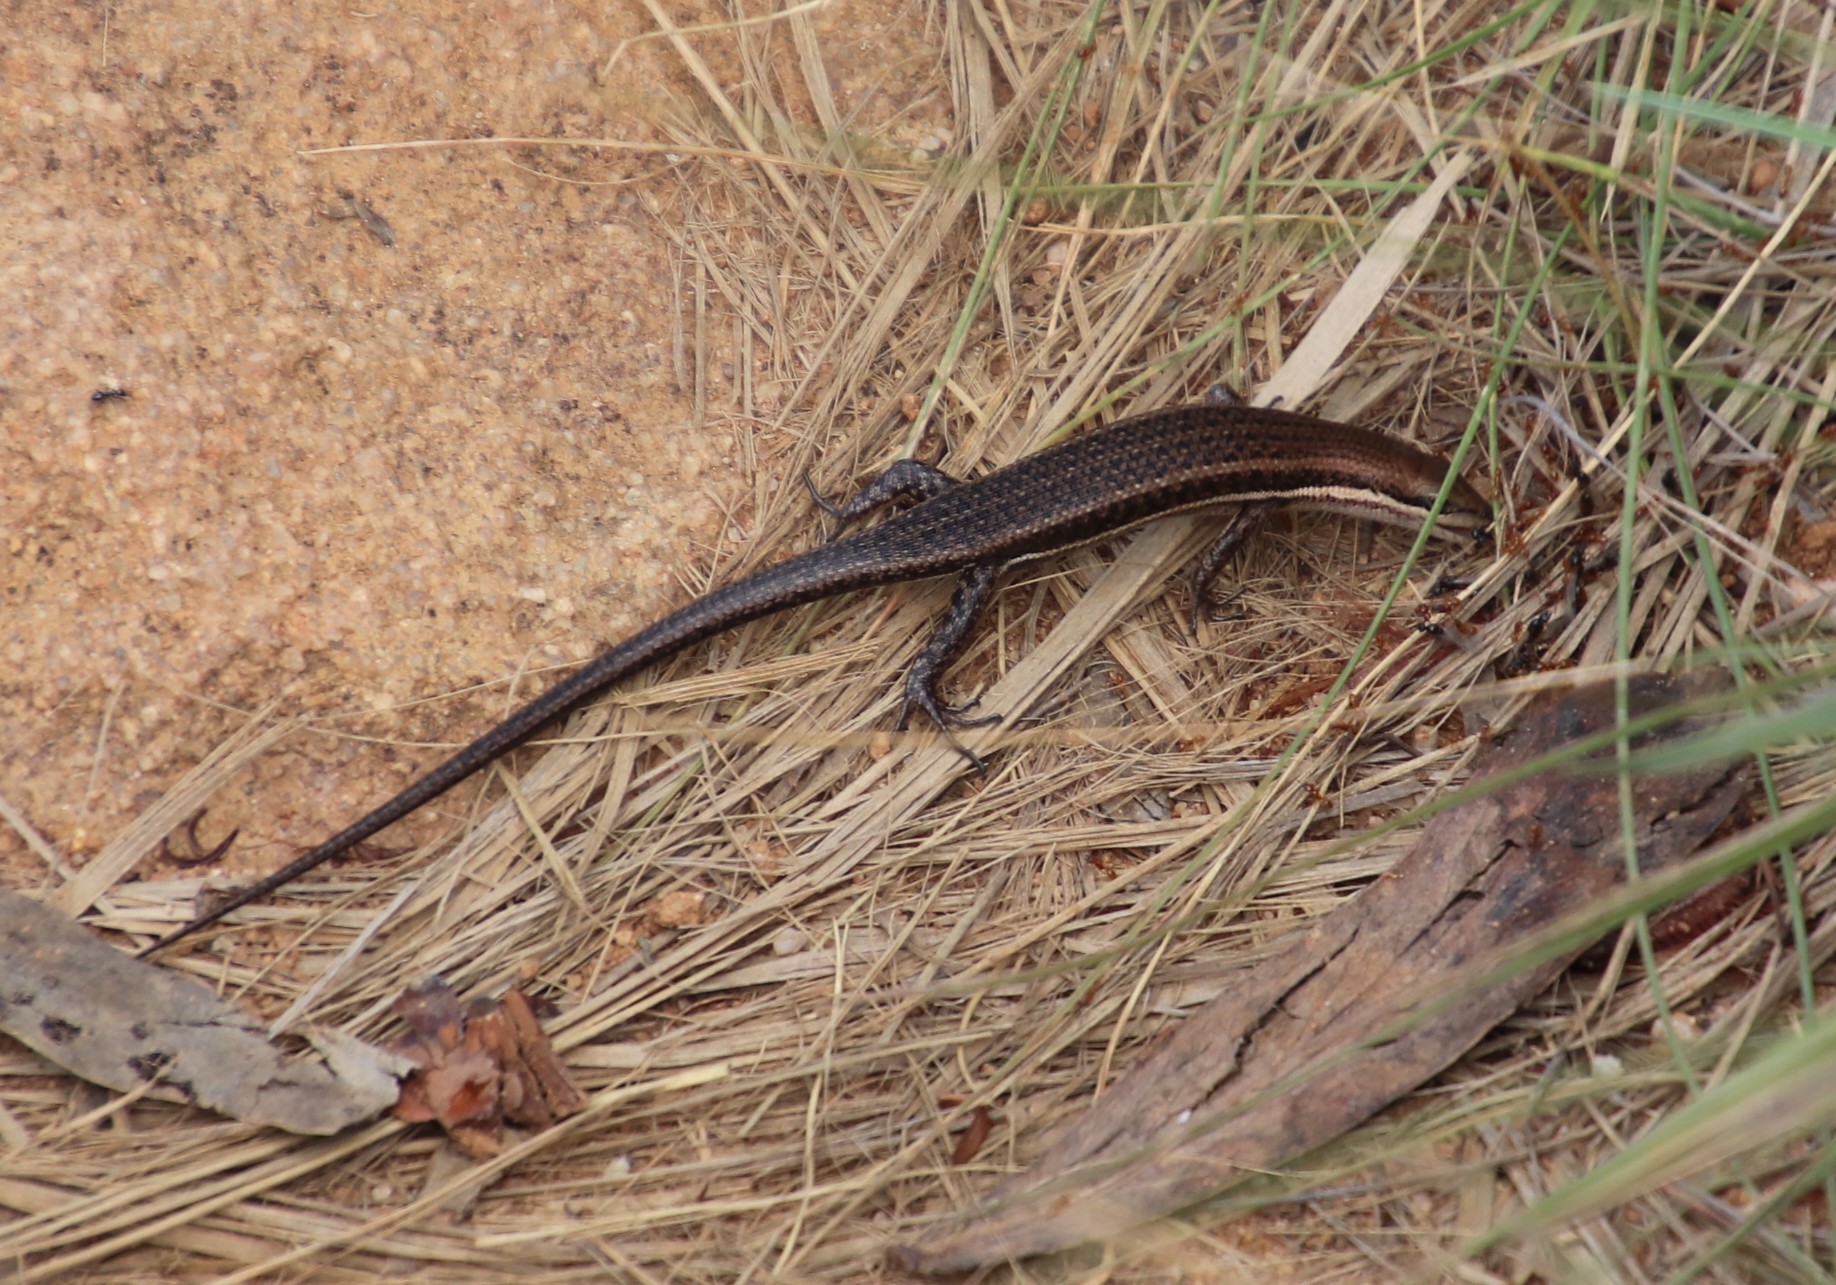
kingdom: Animalia
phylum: Chordata
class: Squamata
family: Scincidae
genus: Trachylepis
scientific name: Trachylepis varia
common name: Eastern variable skink
